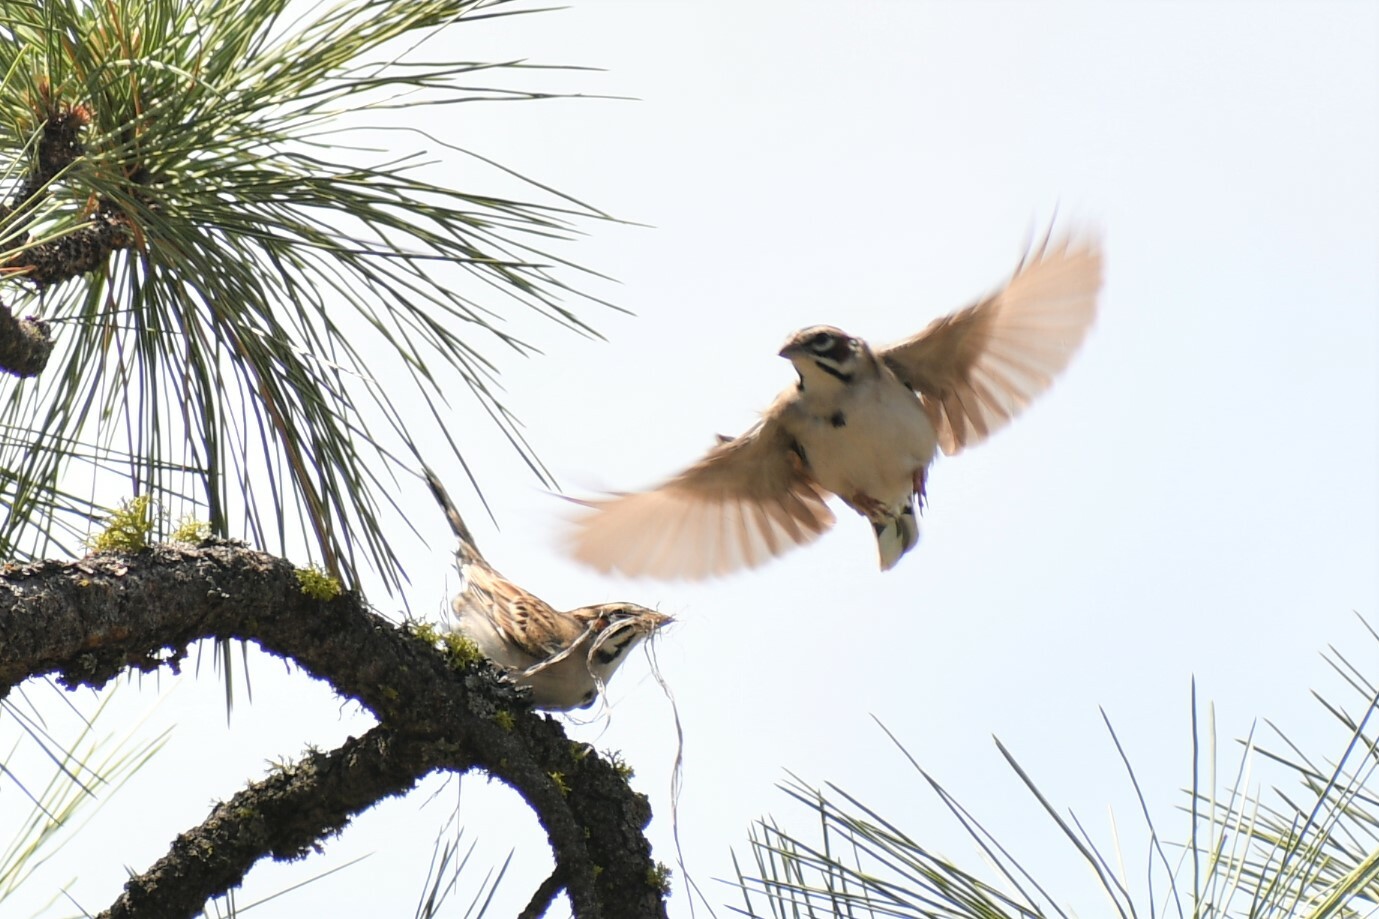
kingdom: Animalia
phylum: Chordata
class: Aves
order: Passeriformes
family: Passerellidae
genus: Chondestes
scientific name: Chondestes grammacus
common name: Lark sparrow
